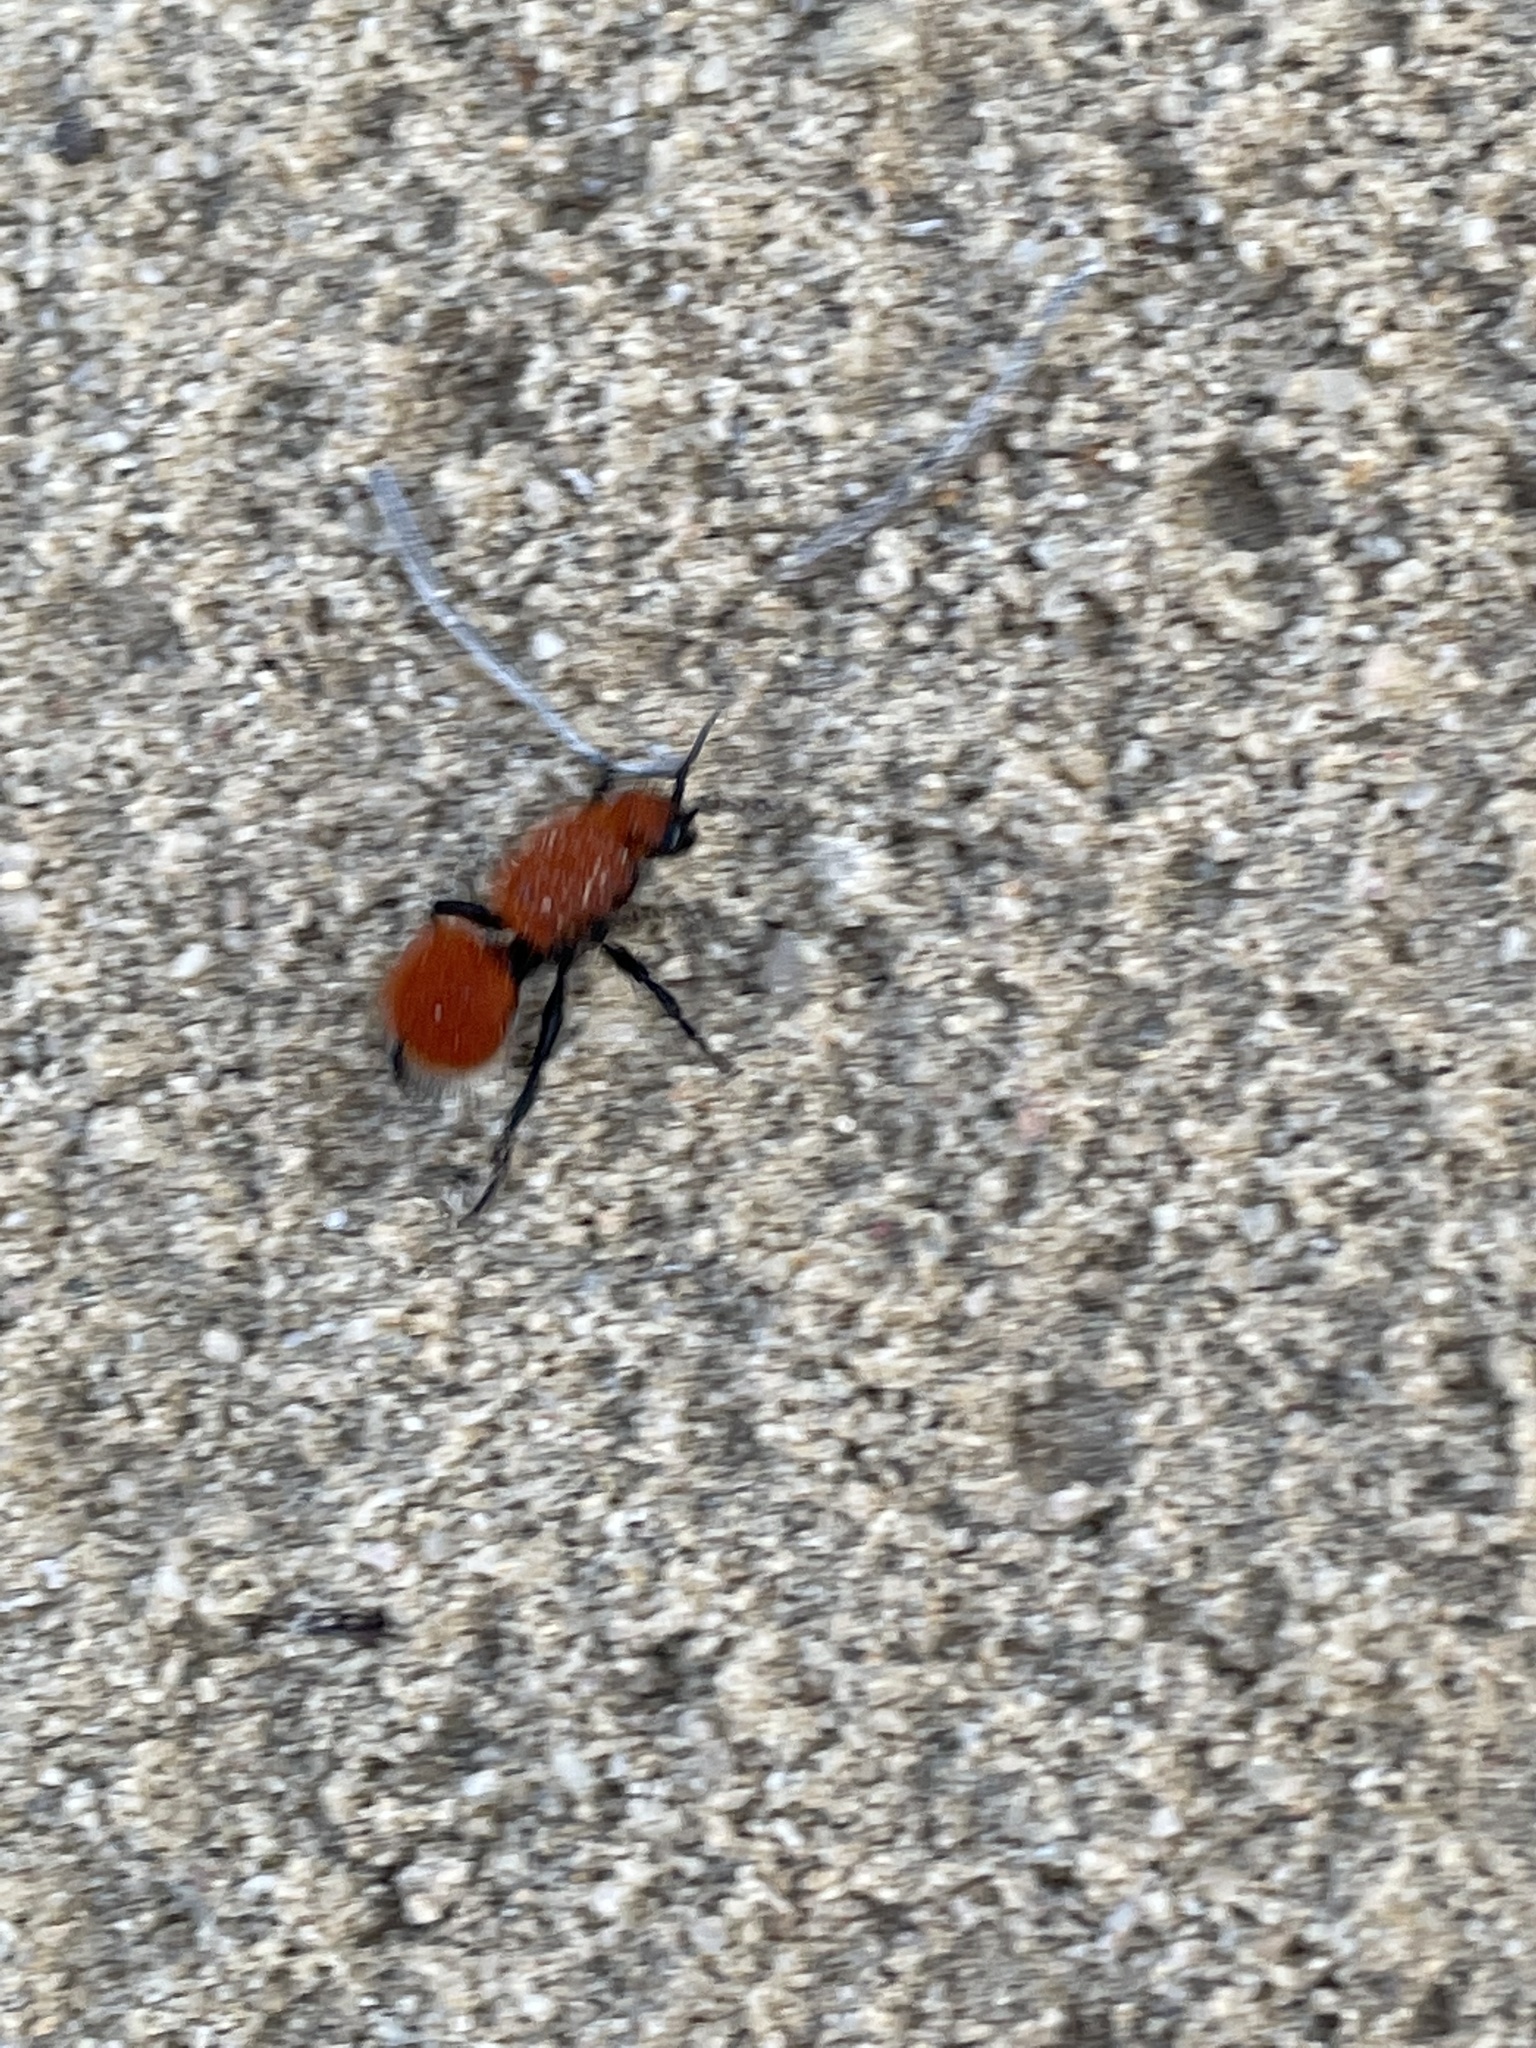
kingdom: Animalia
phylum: Arthropoda
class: Insecta
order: Hymenoptera
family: Mutillidae
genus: Dasymutilla
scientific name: Dasymutilla
